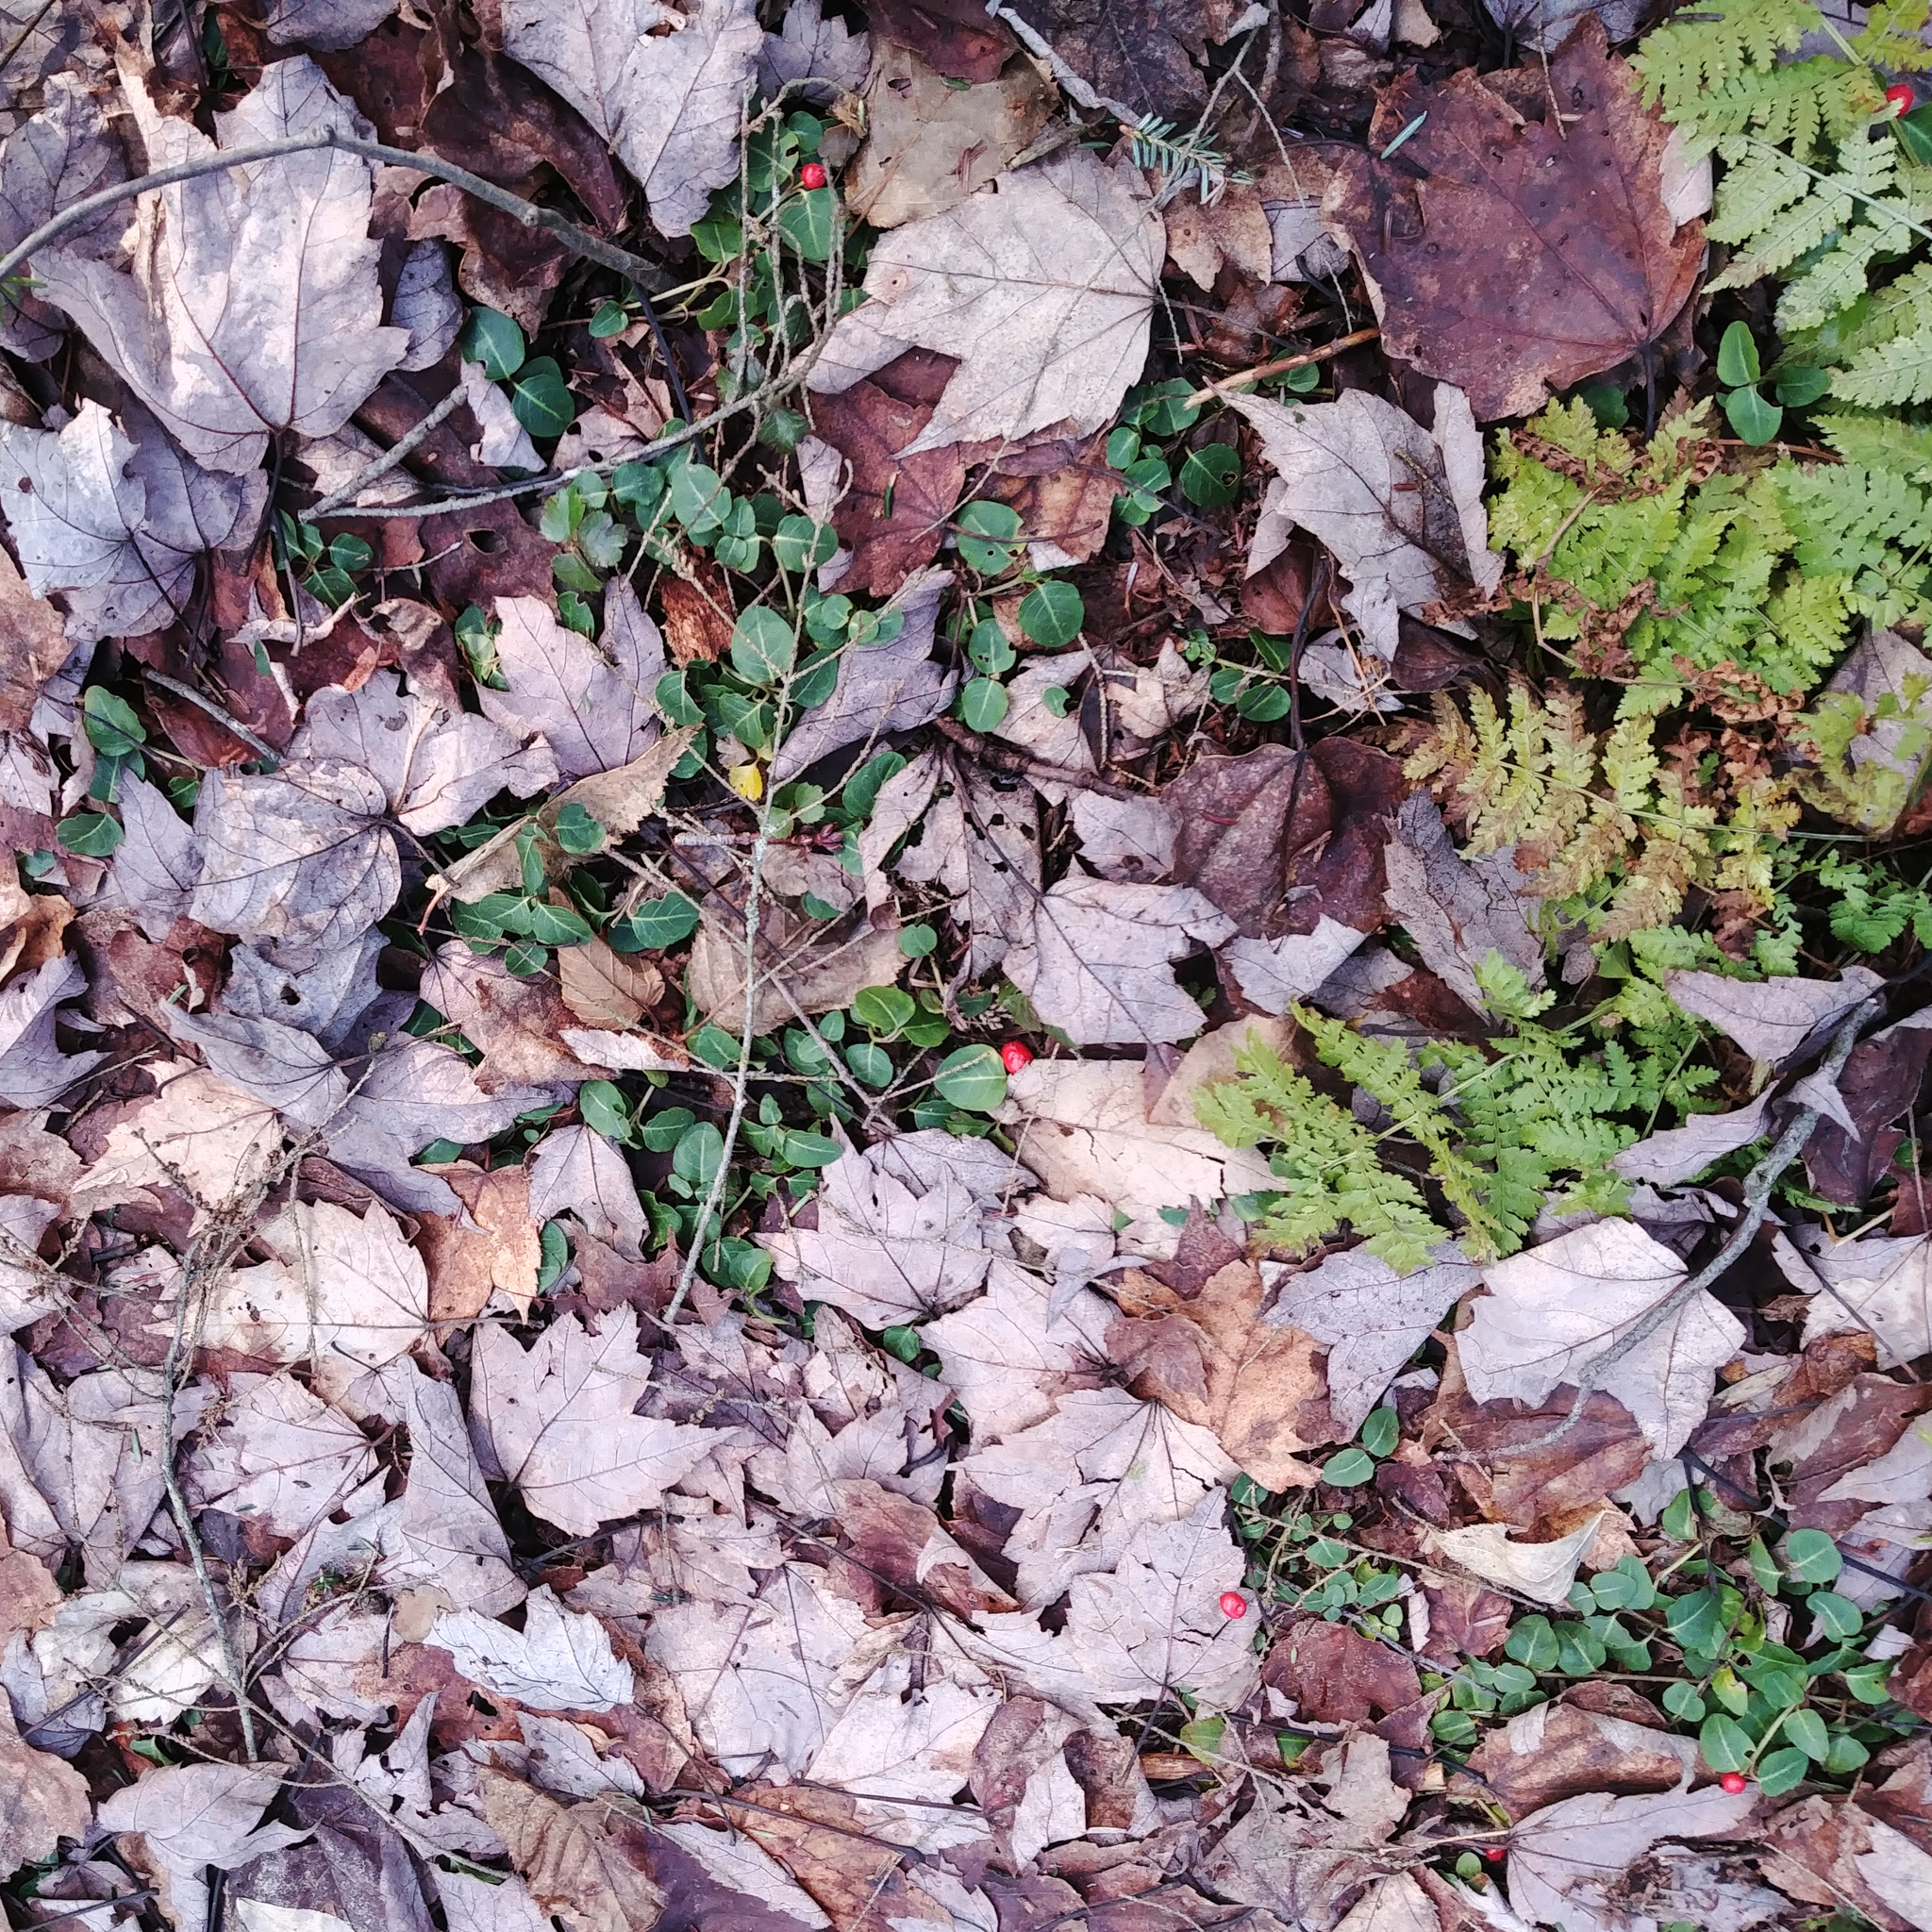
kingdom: Plantae
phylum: Tracheophyta
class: Magnoliopsida
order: Gentianales
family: Rubiaceae
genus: Mitchella
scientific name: Mitchella repens
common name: Partridge-berry
